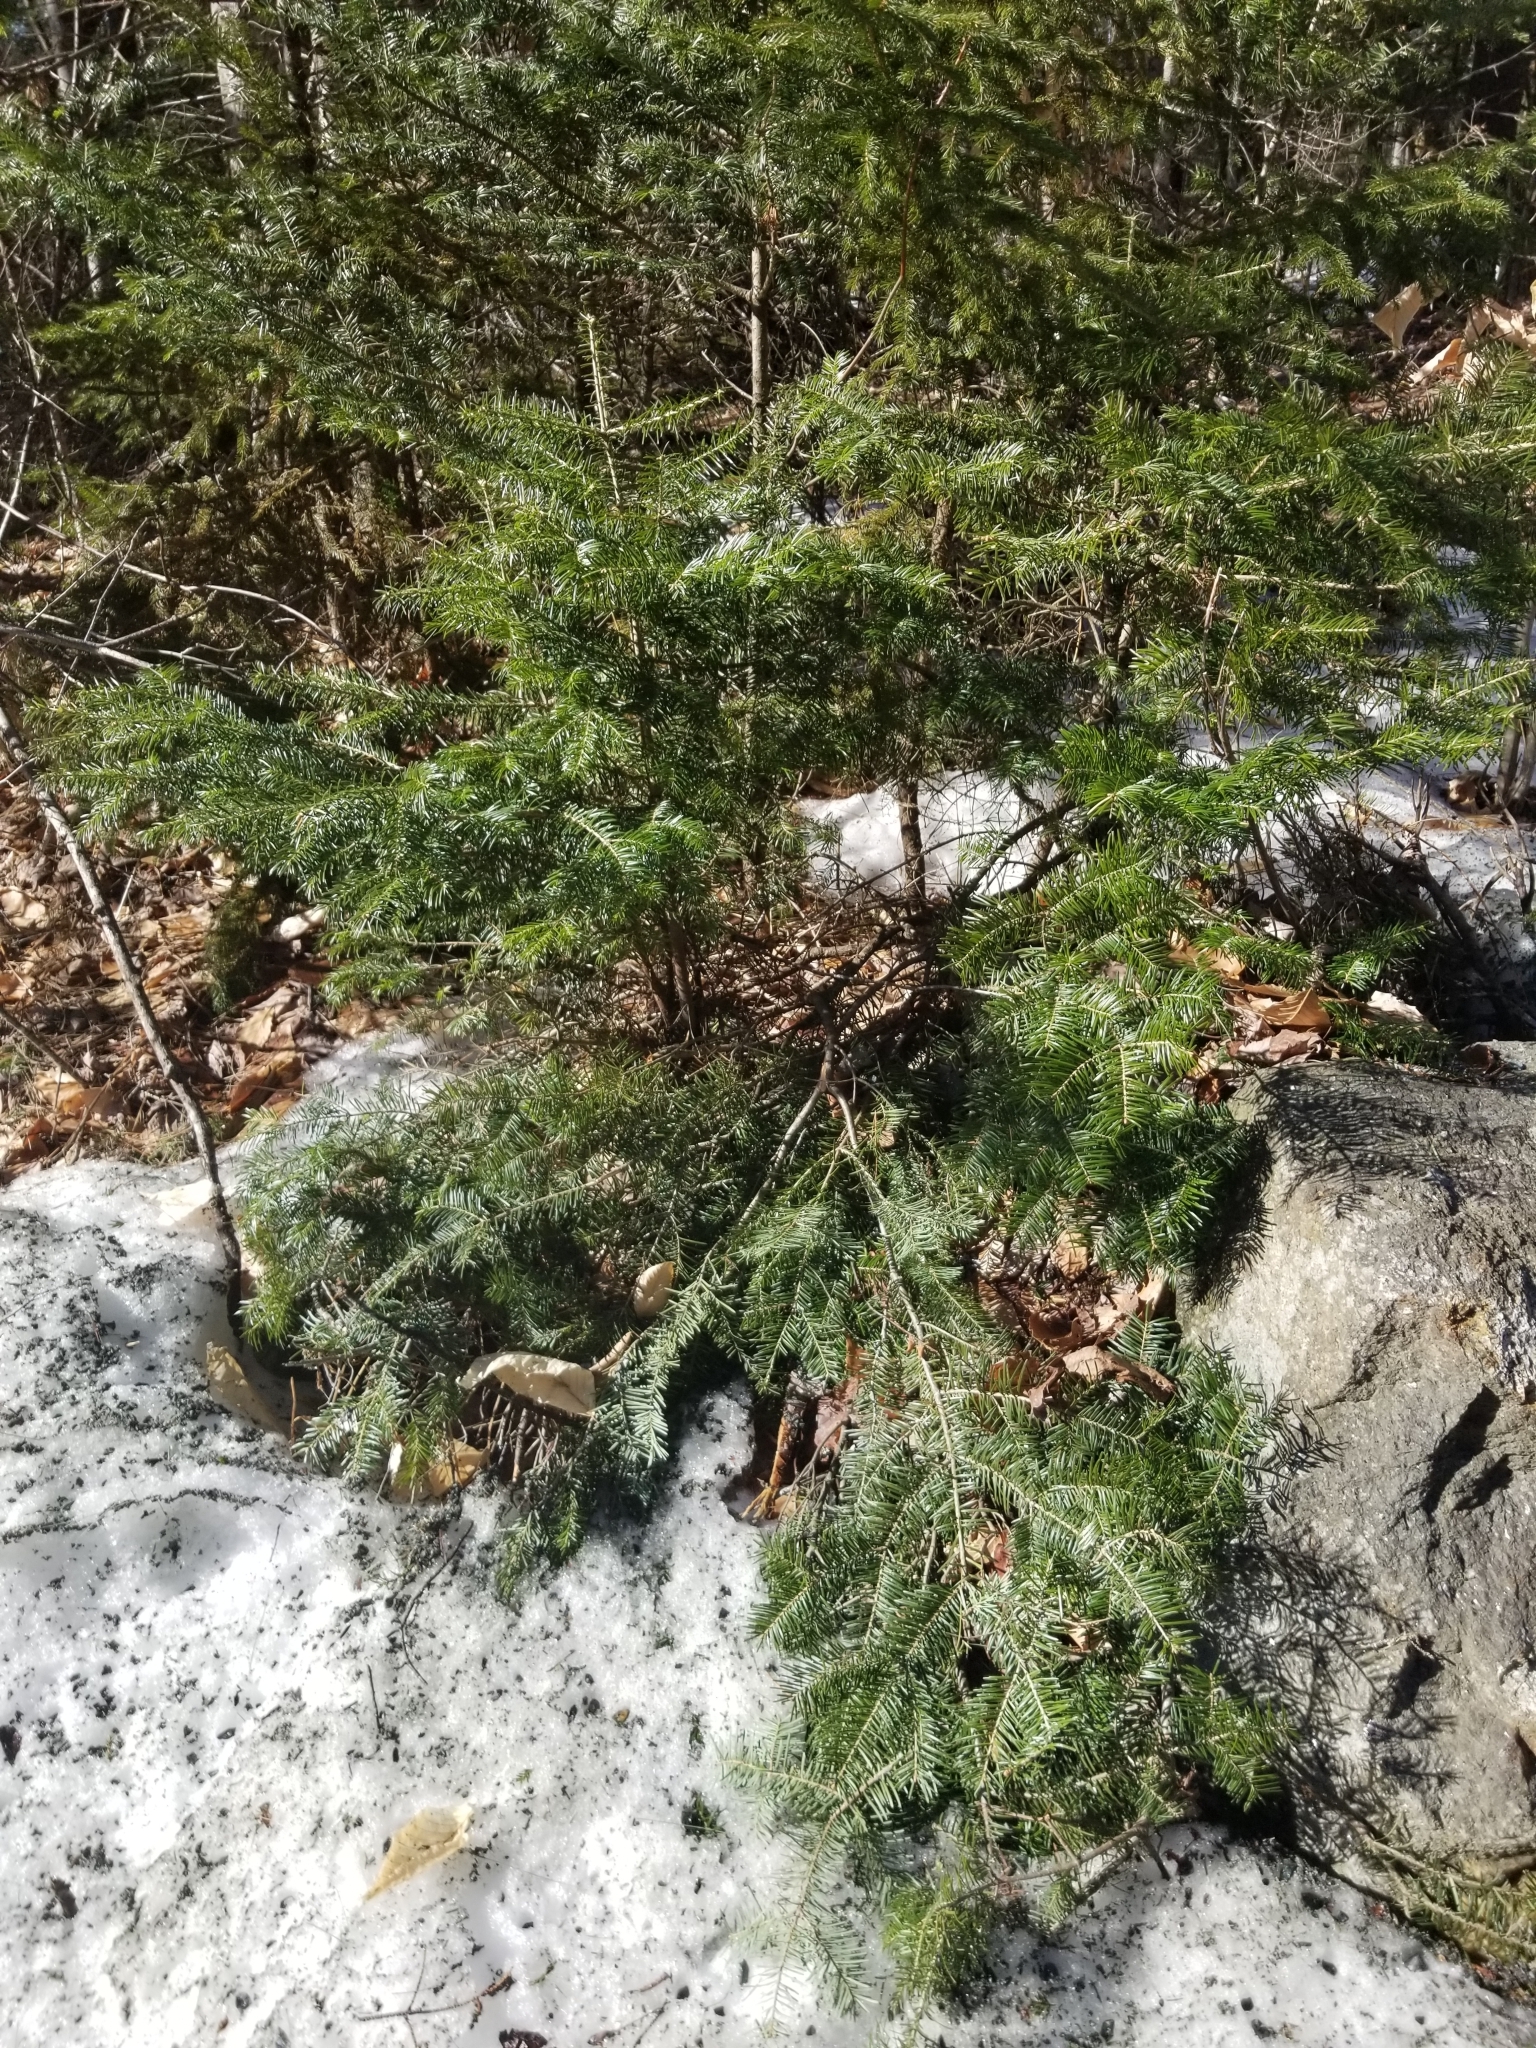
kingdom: Plantae
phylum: Tracheophyta
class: Pinopsida
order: Pinales
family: Pinaceae
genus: Abies
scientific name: Abies balsamea
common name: Balsam fir
